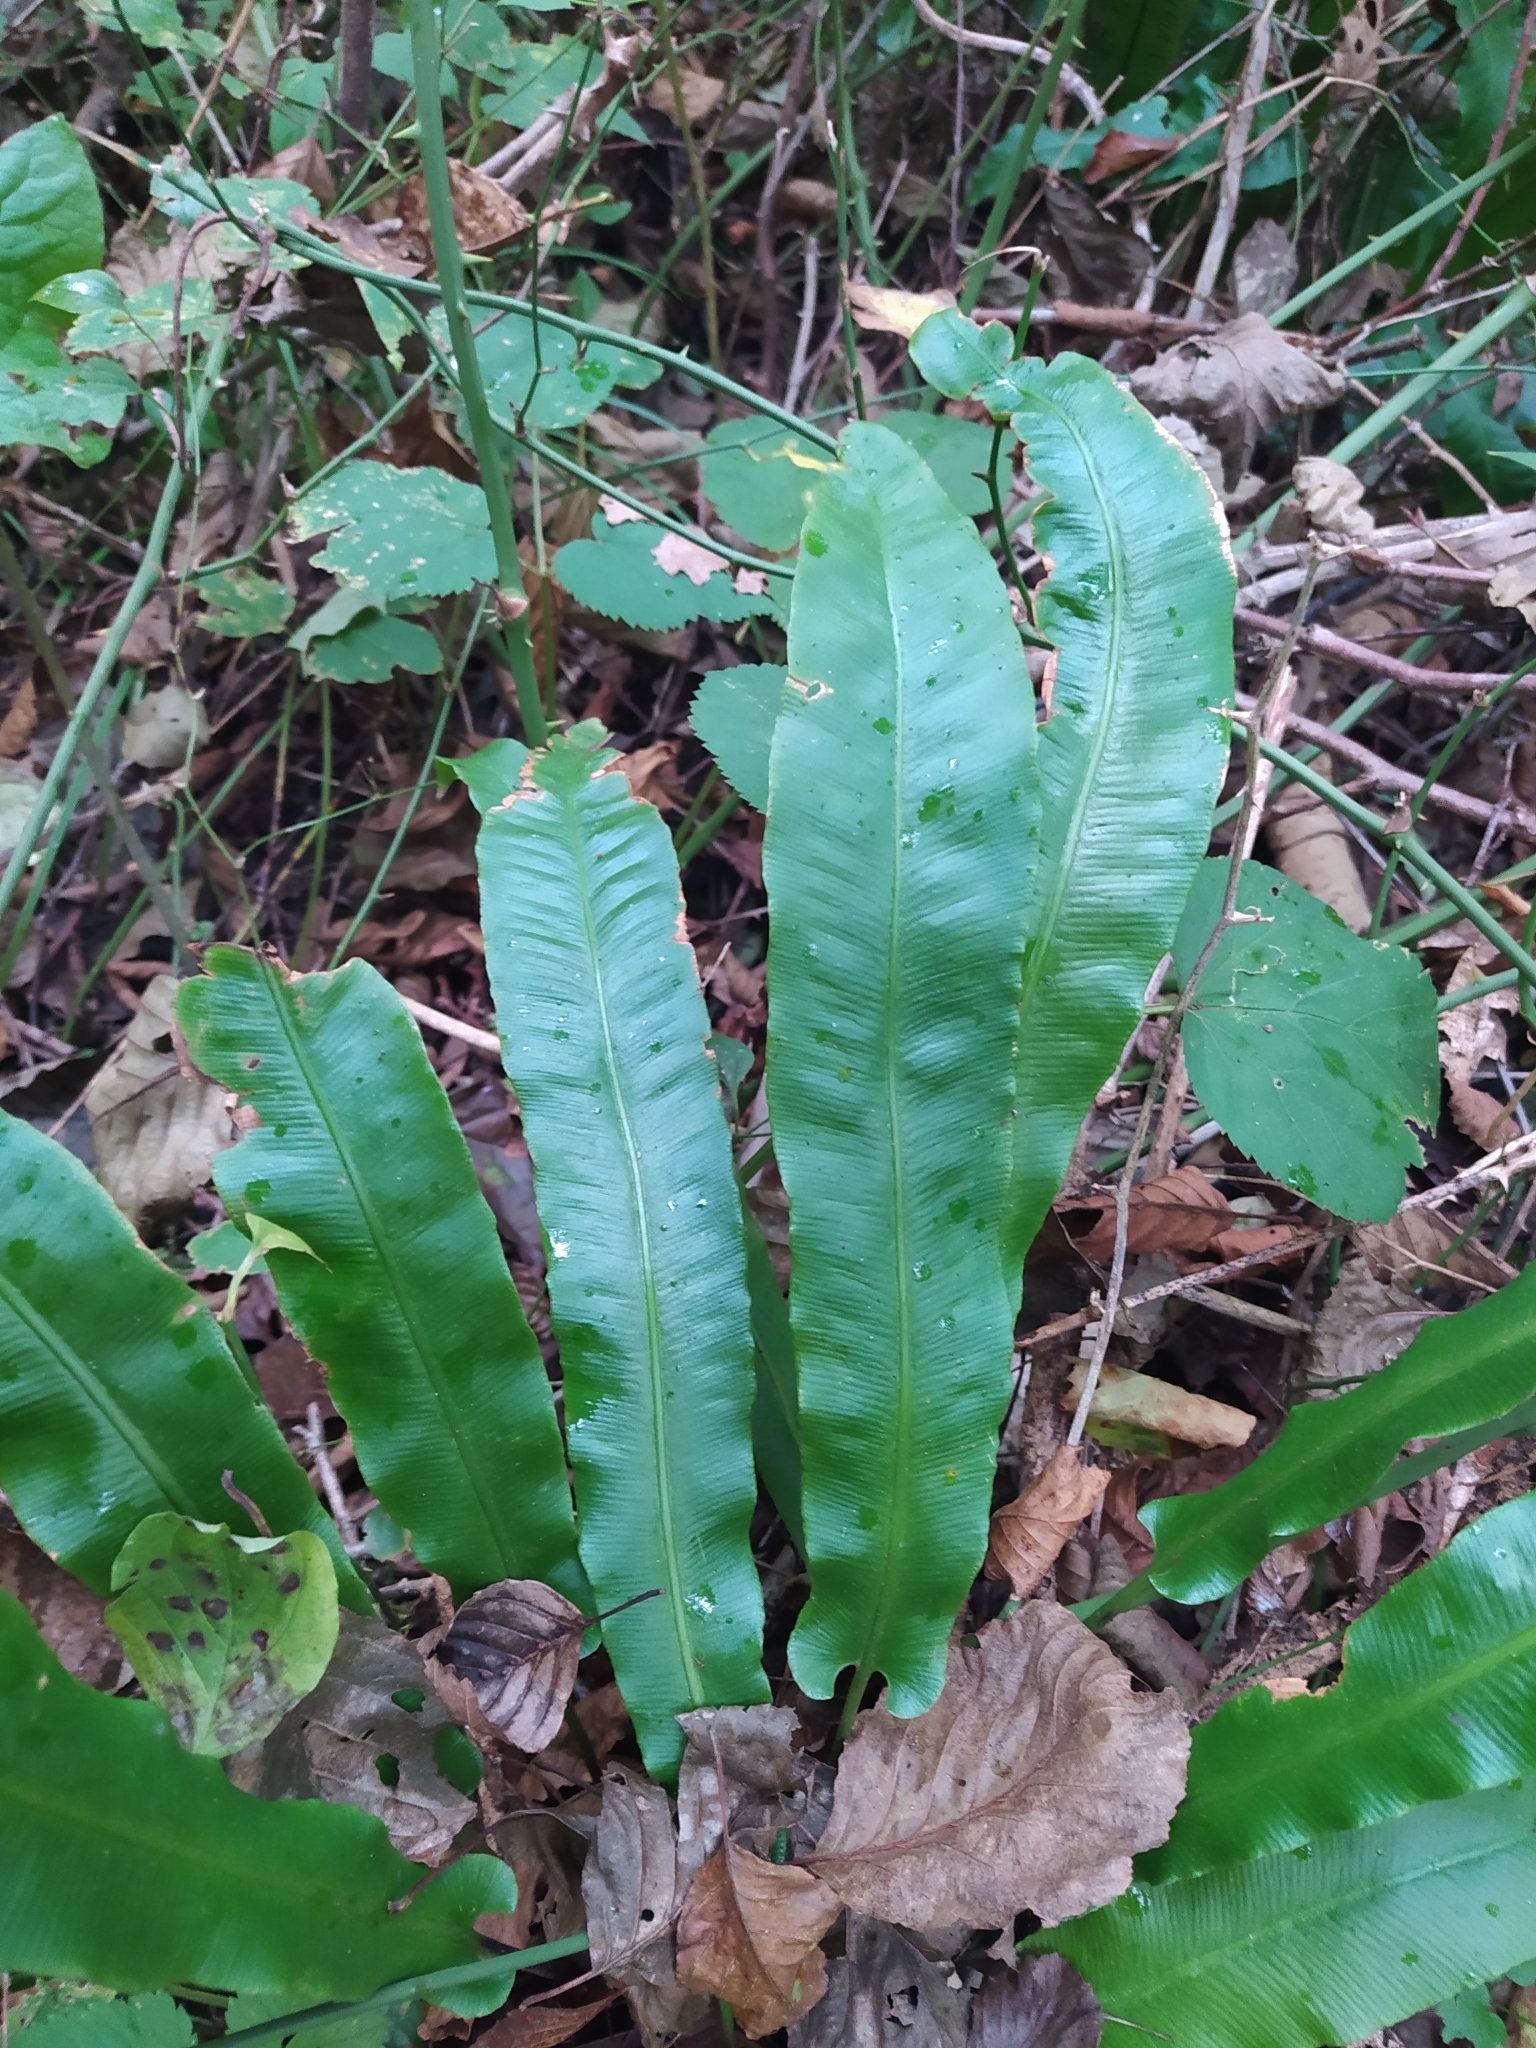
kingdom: Plantae
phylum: Tracheophyta
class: Polypodiopsida
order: Polypodiales
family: Aspleniaceae
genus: Asplenium
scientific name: Asplenium scolopendrium
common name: Hart's-tongue fern
